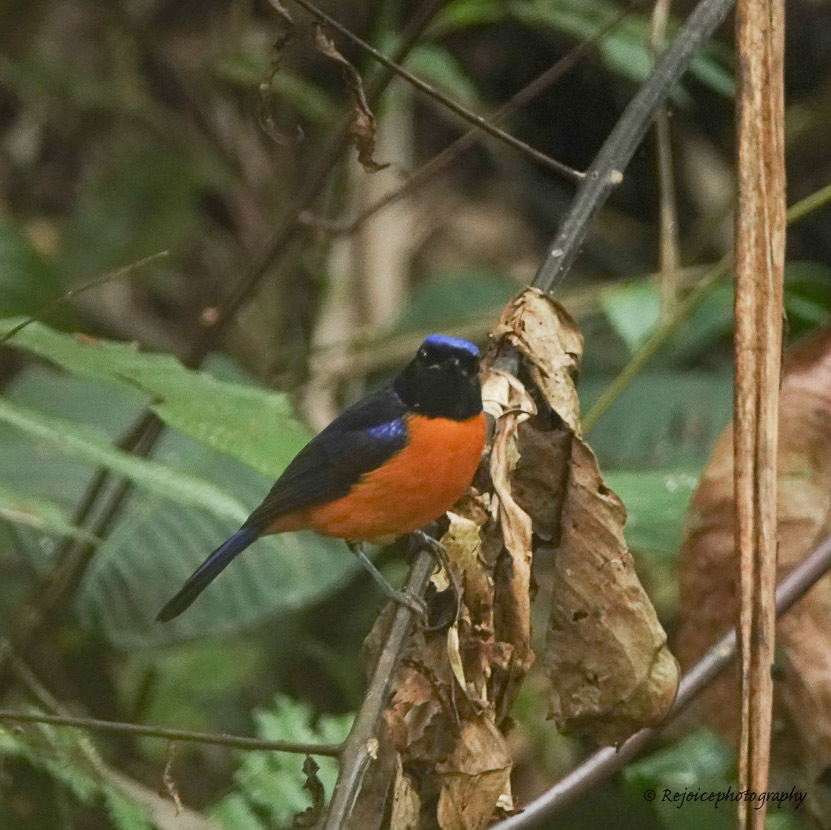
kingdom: Animalia
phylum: Chordata
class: Aves
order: Passeriformes
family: Muscicapidae
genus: Niltava
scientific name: Niltava sundara
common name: Rufous-bellied niltava
